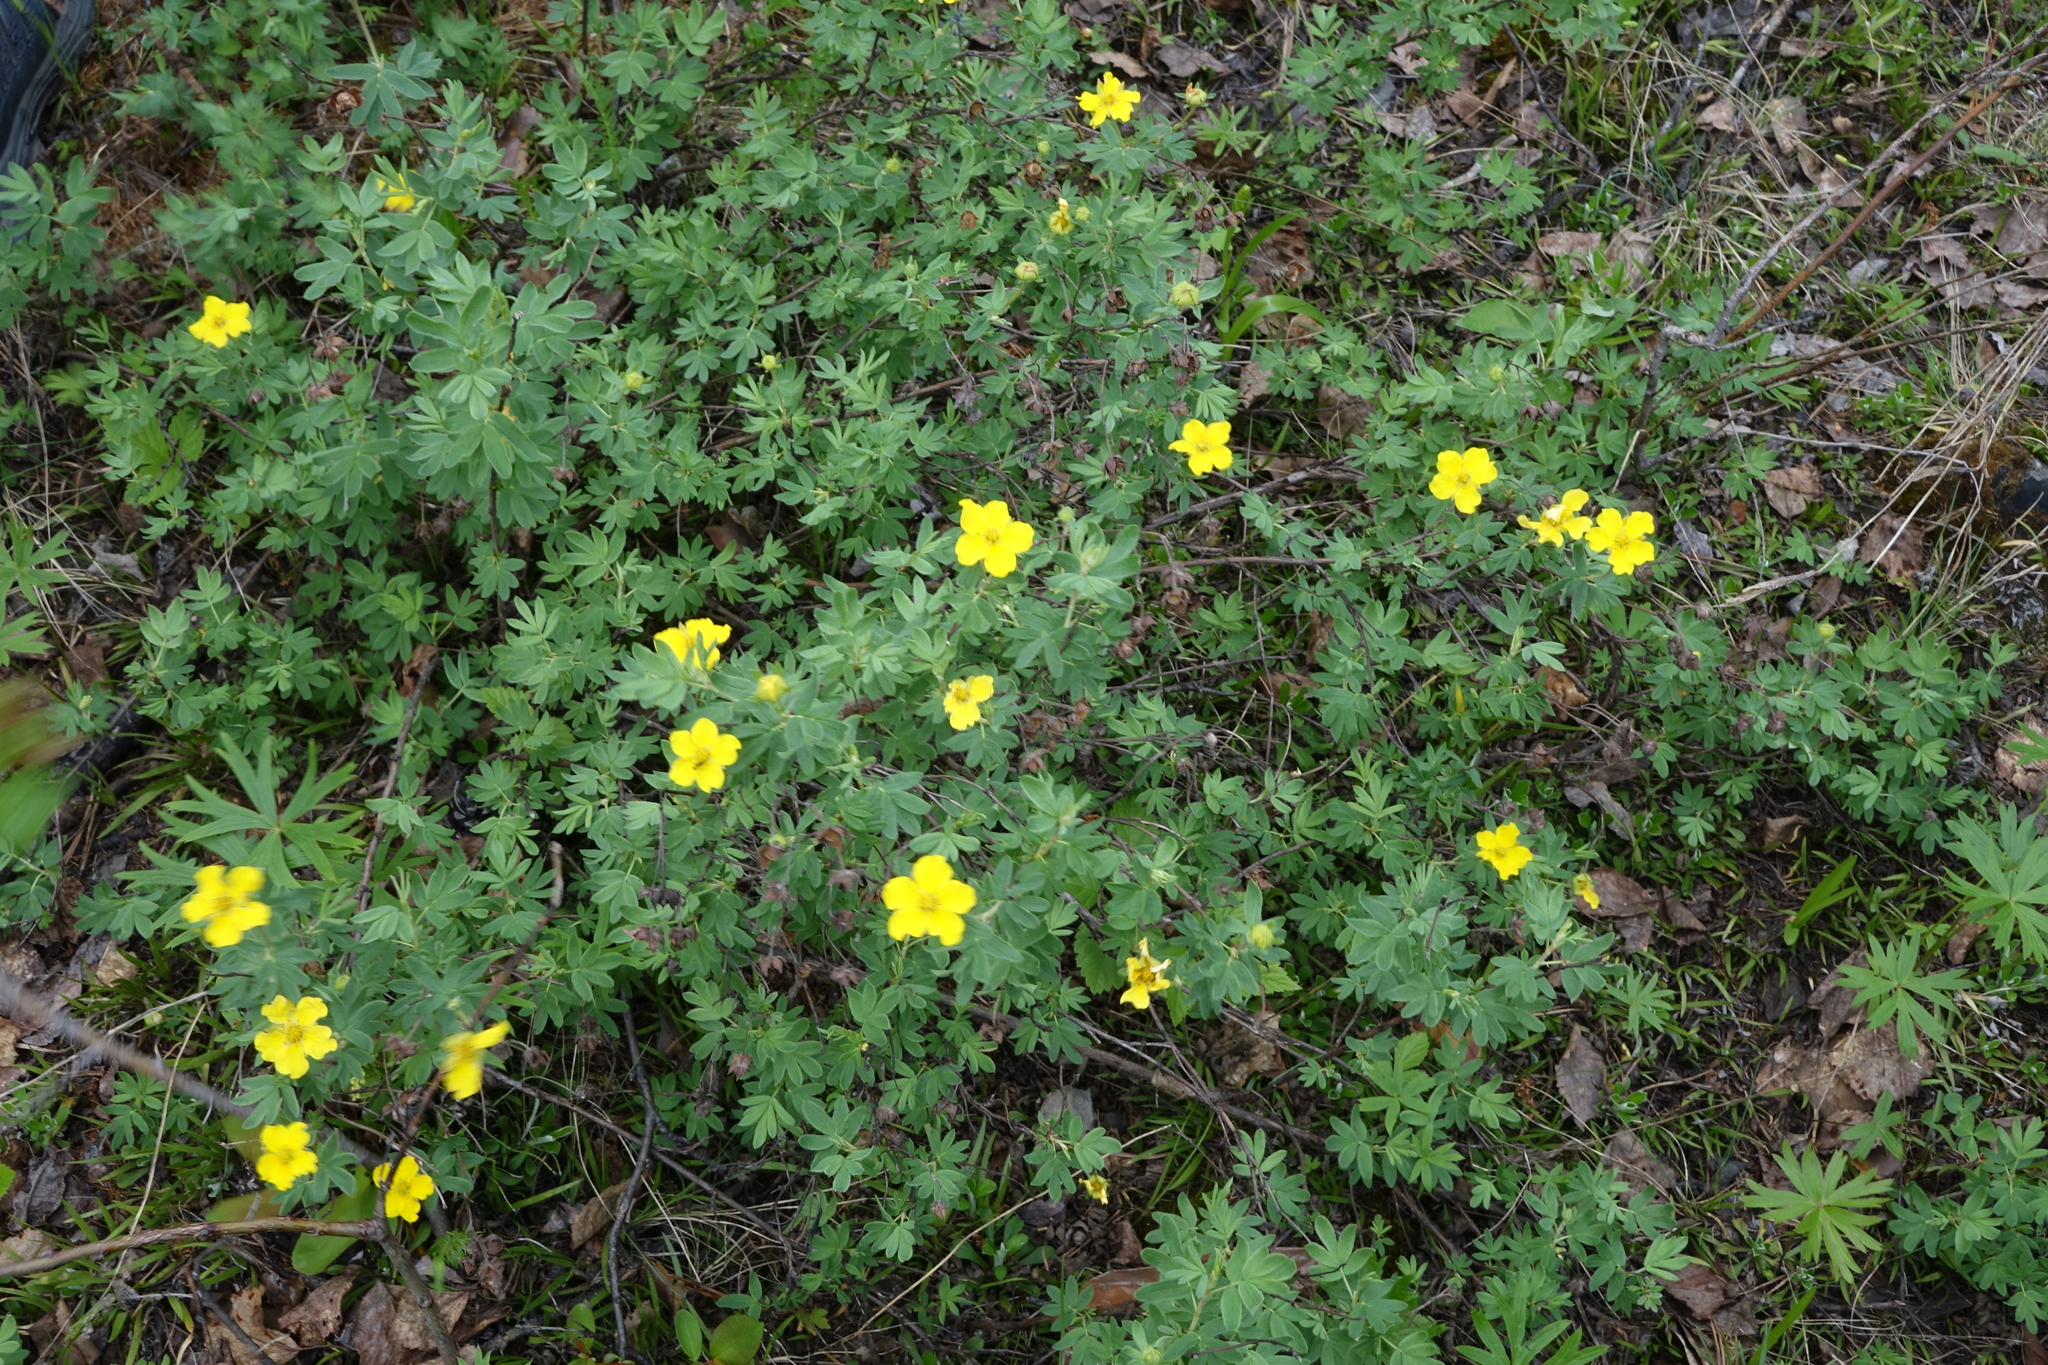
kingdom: Plantae
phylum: Tracheophyta
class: Magnoliopsida
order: Rosales
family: Rosaceae
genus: Dasiphora
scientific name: Dasiphora fruticosa
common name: Shrubby cinquefoil
